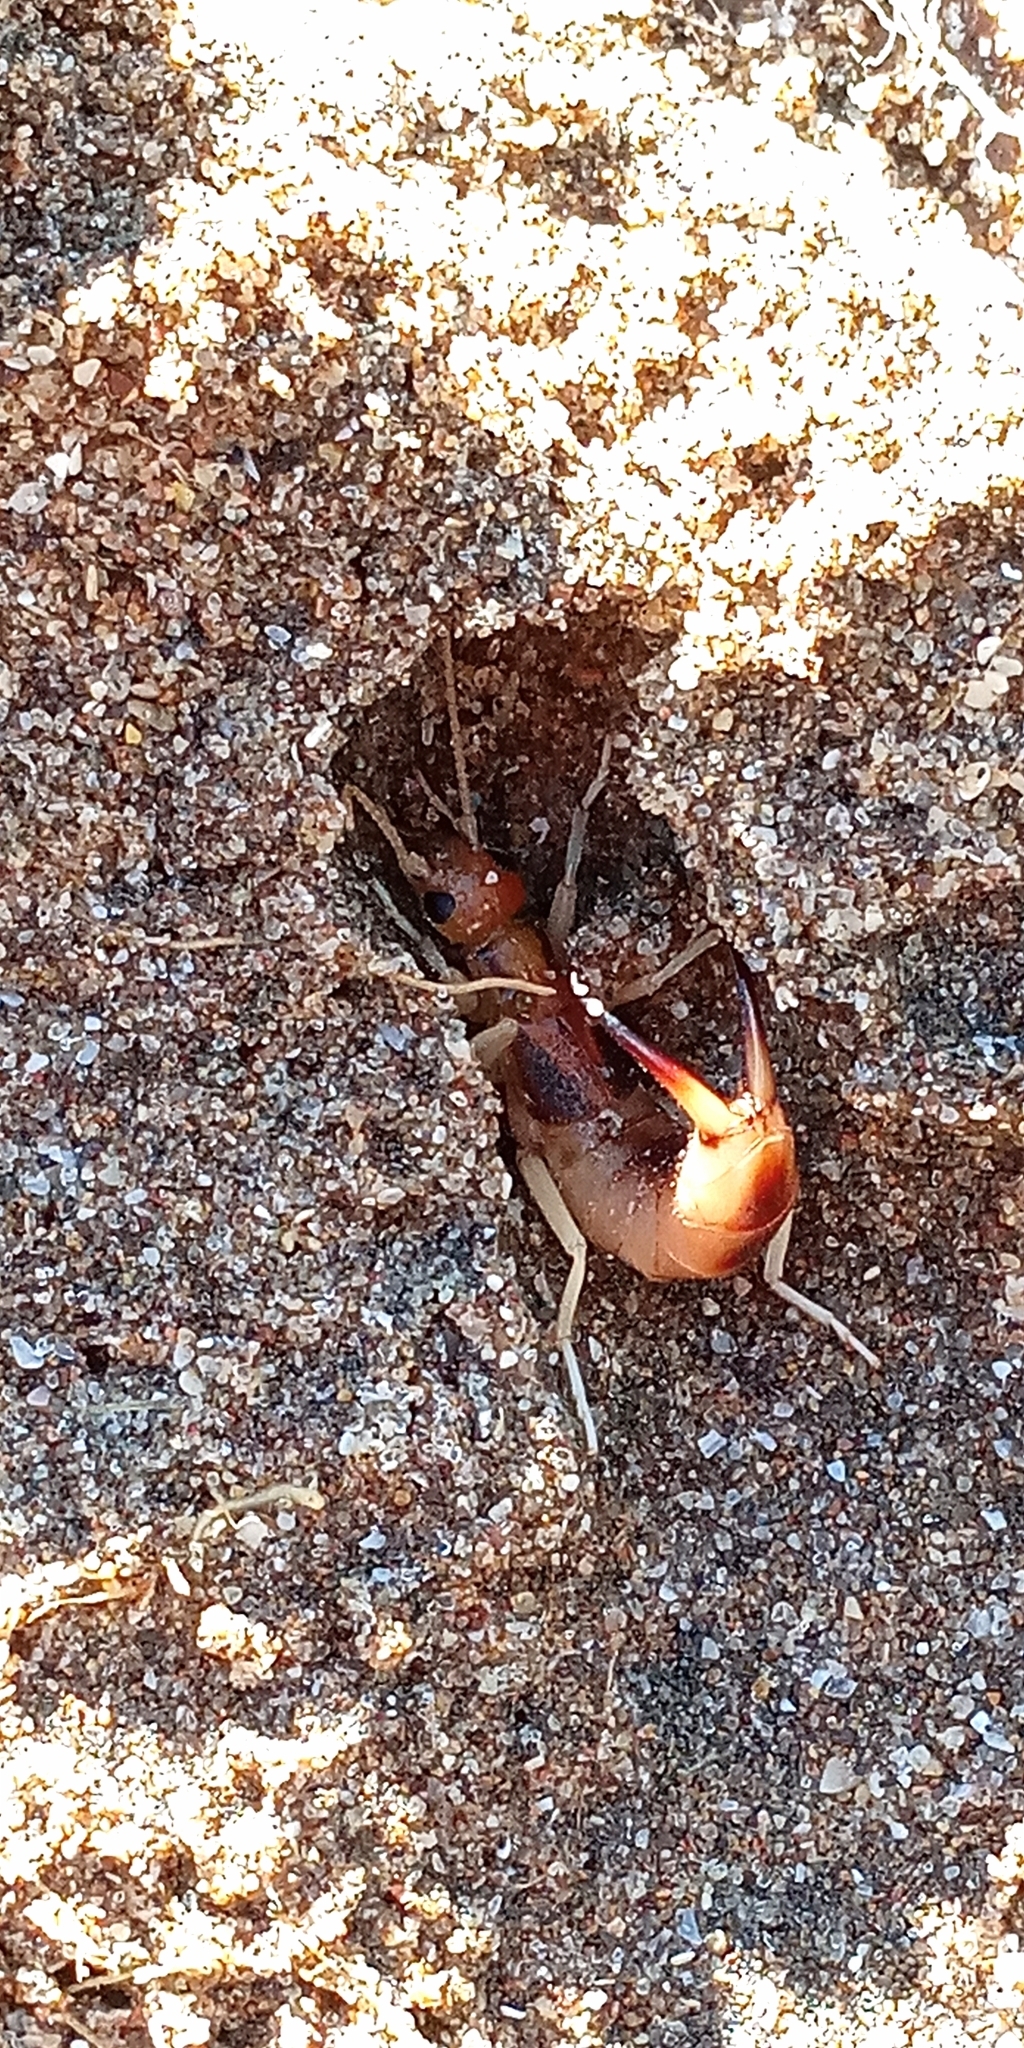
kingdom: Animalia
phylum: Arthropoda
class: Insecta
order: Dermaptera
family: Labiduridae
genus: Labidura
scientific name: Labidura riparia
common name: Striped earwig
